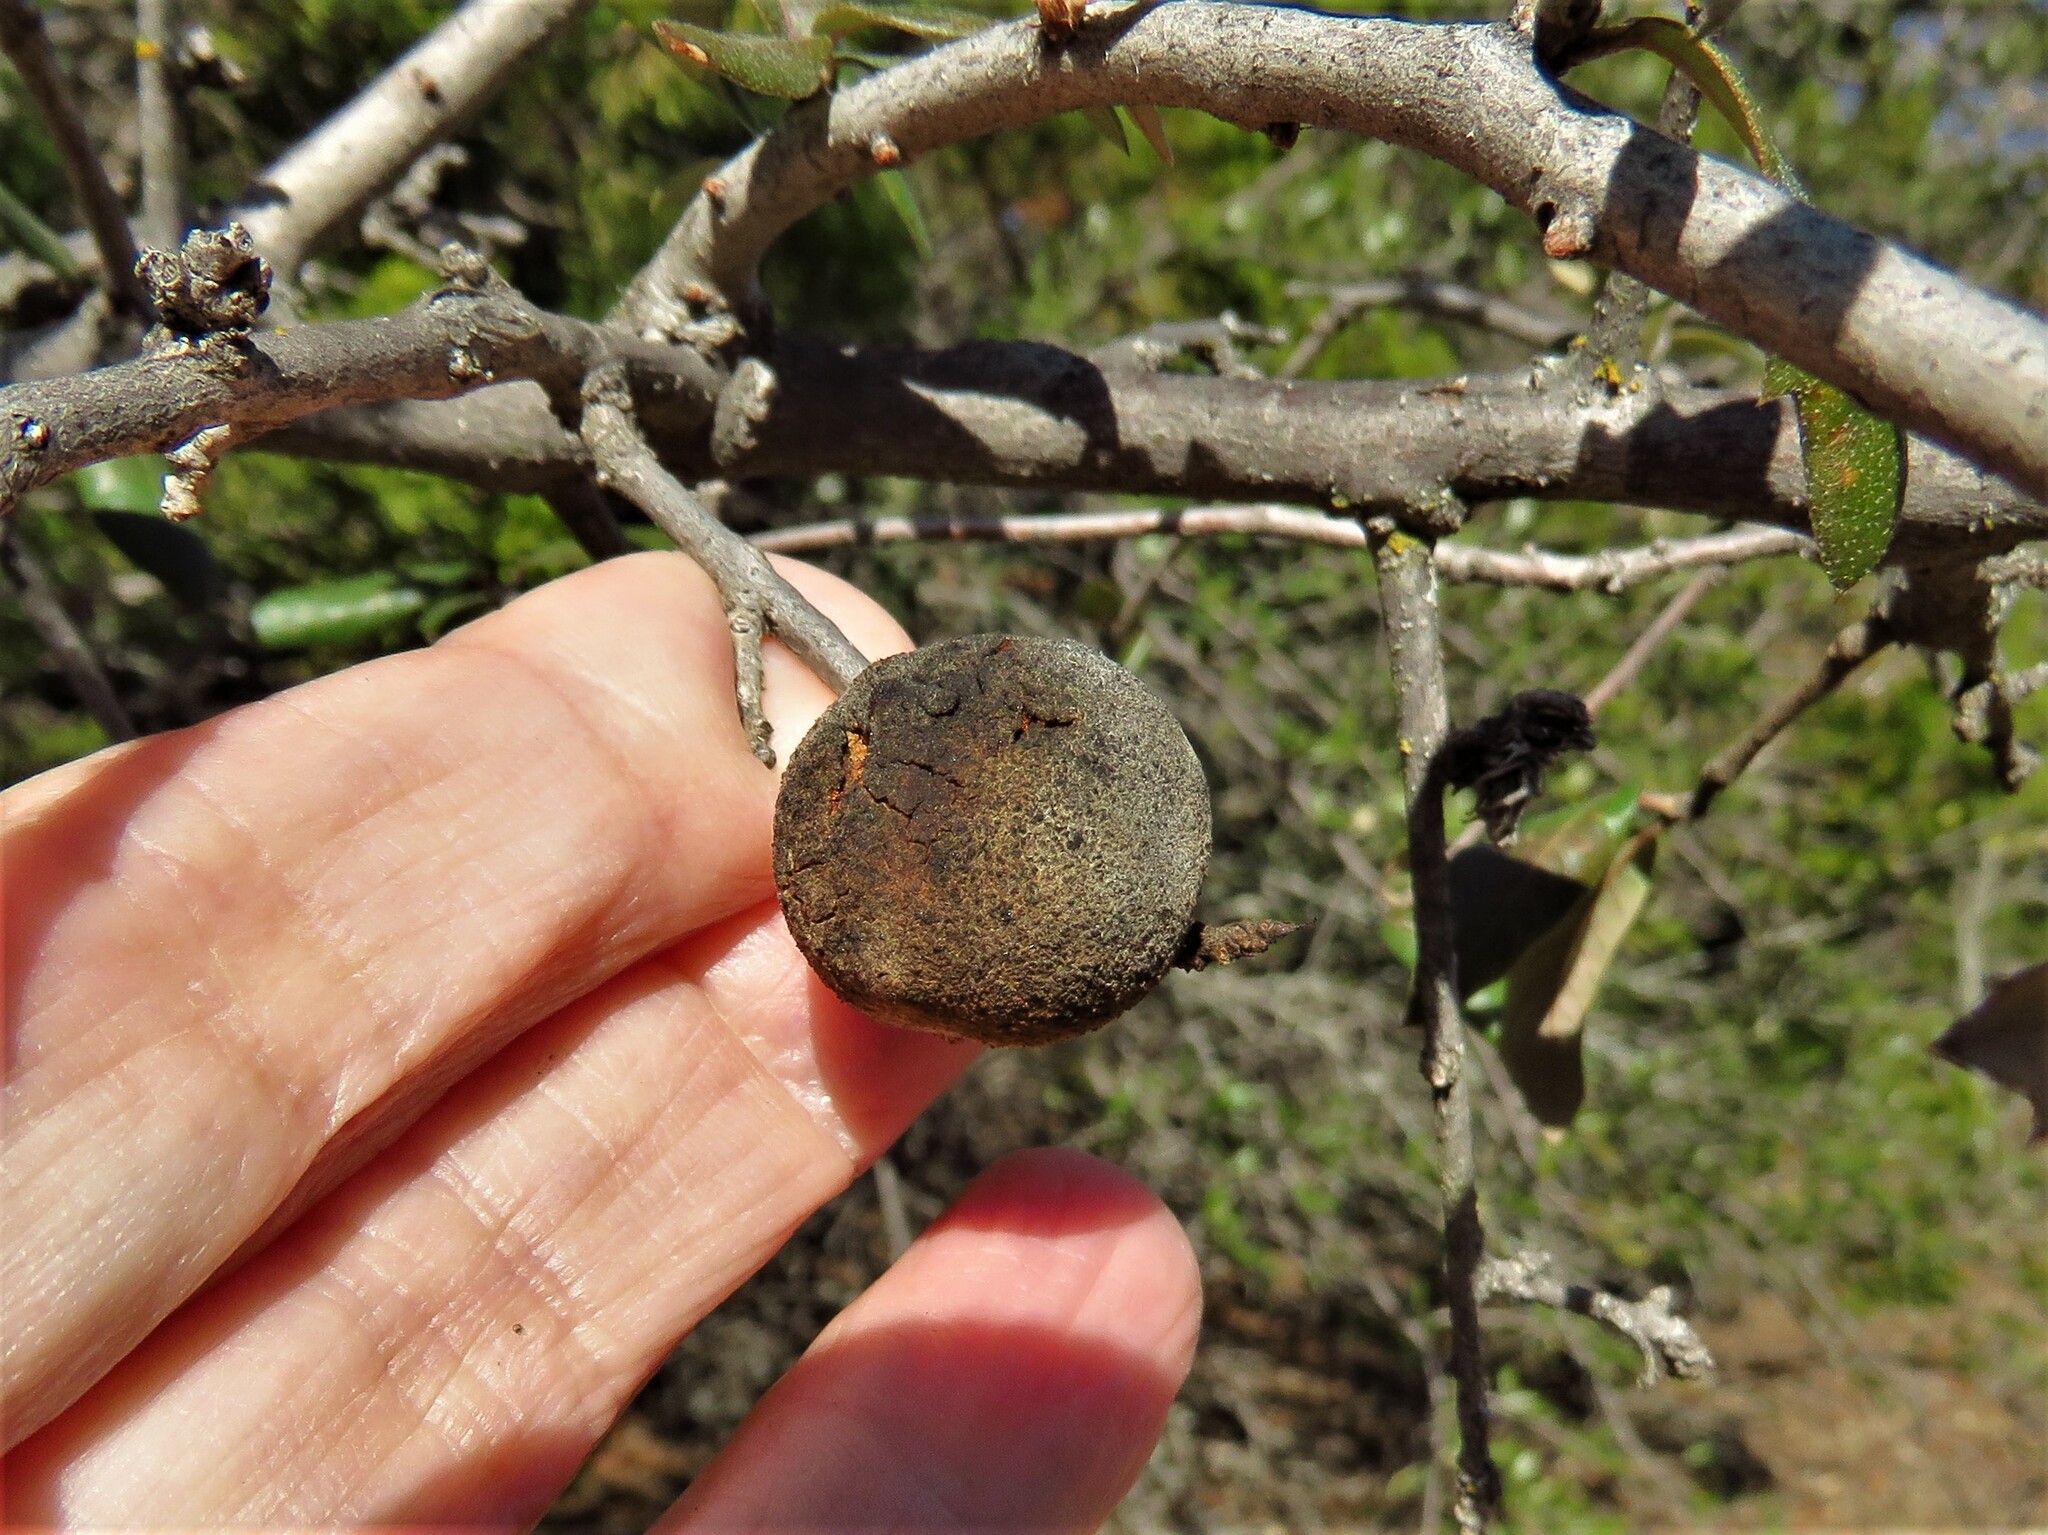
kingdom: Animalia
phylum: Arthropoda
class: Insecta
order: Hymenoptera
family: Cynipidae
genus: Disholcaspis
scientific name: Disholcaspis
